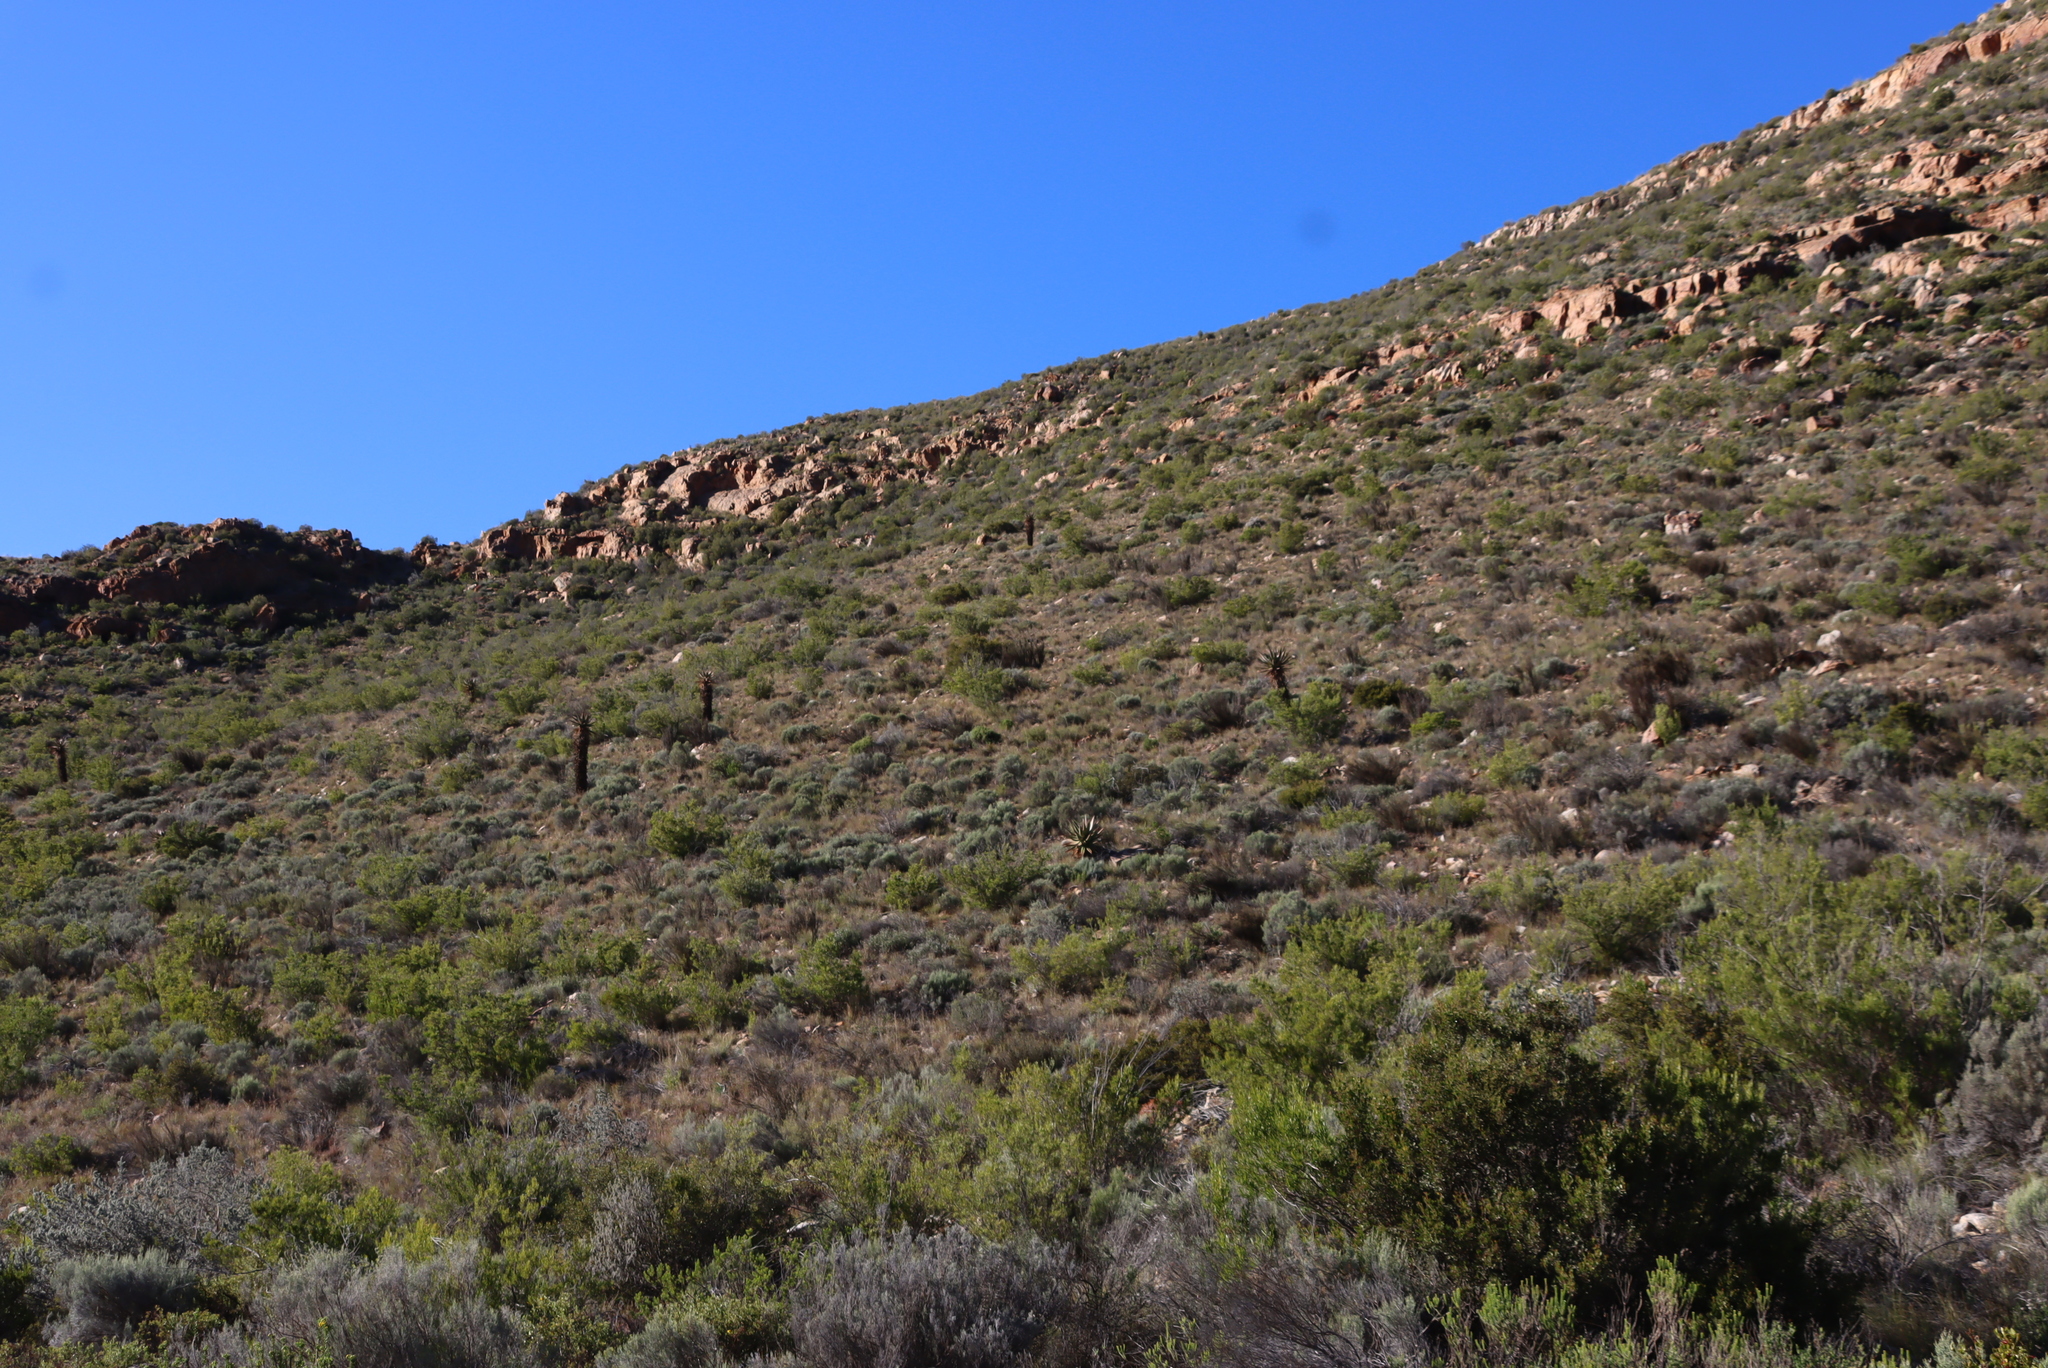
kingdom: Plantae
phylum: Tracheophyta
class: Liliopsida
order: Asparagales
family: Asphodelaceae
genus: Aloe
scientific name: Aloe ferox
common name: Bitter aloe
